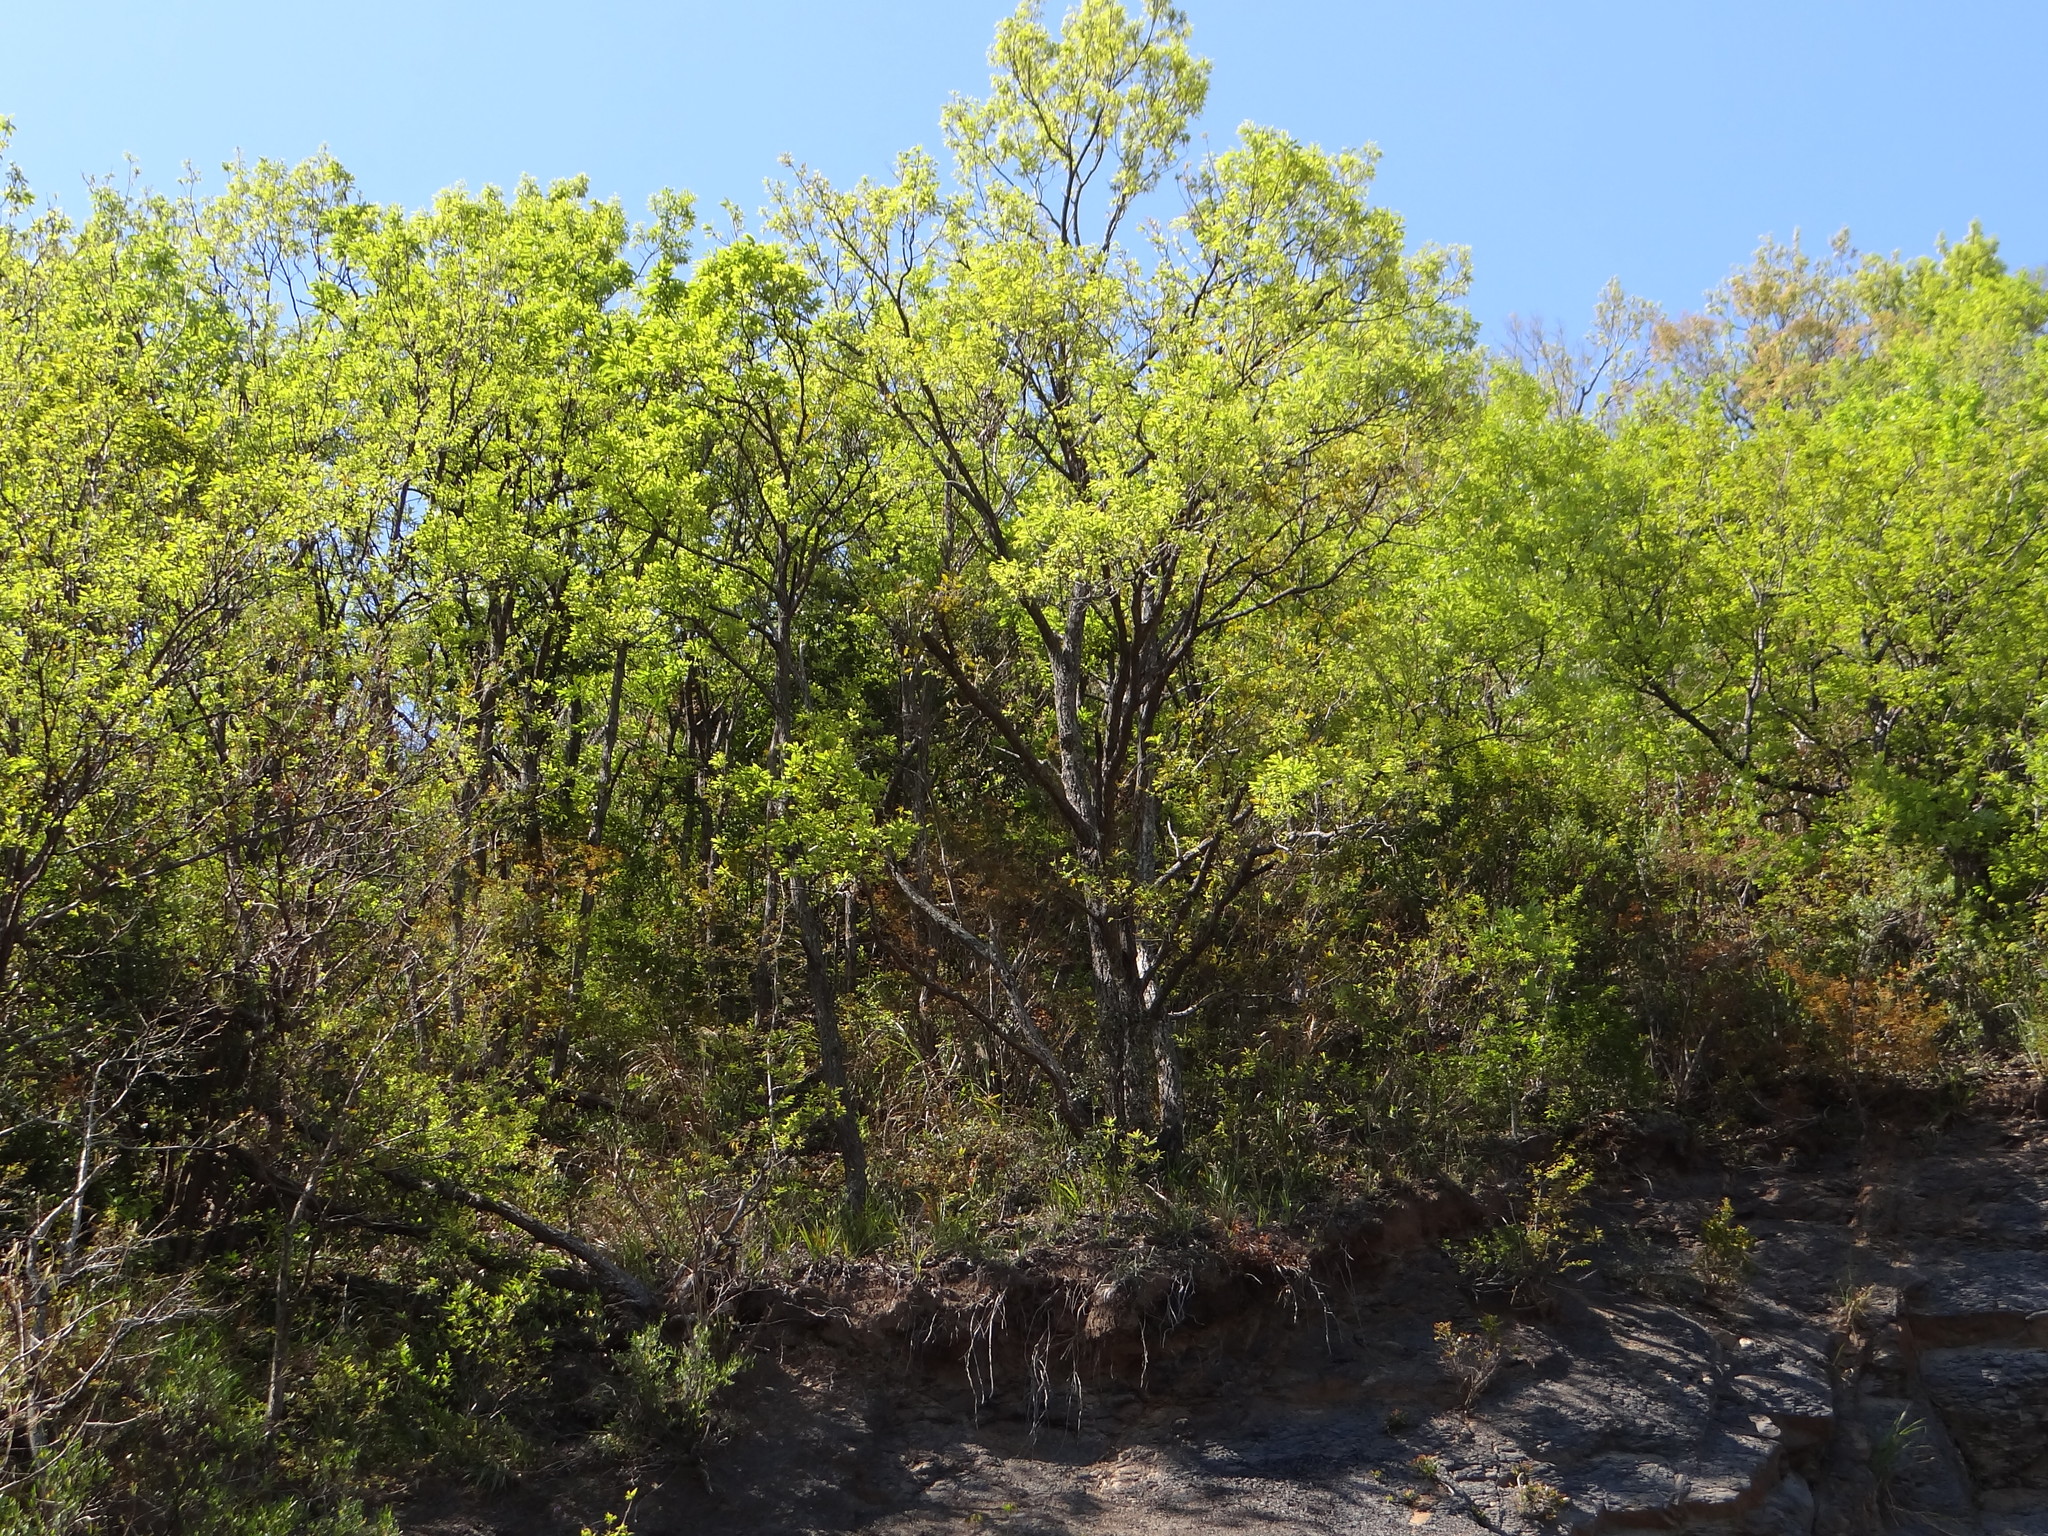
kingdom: Plantae
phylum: Tracheophyta
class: Magnoliopsida
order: Fagales
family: Fagaceae
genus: Quercus
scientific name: Quercus variabilis
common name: Chinese cork oak
